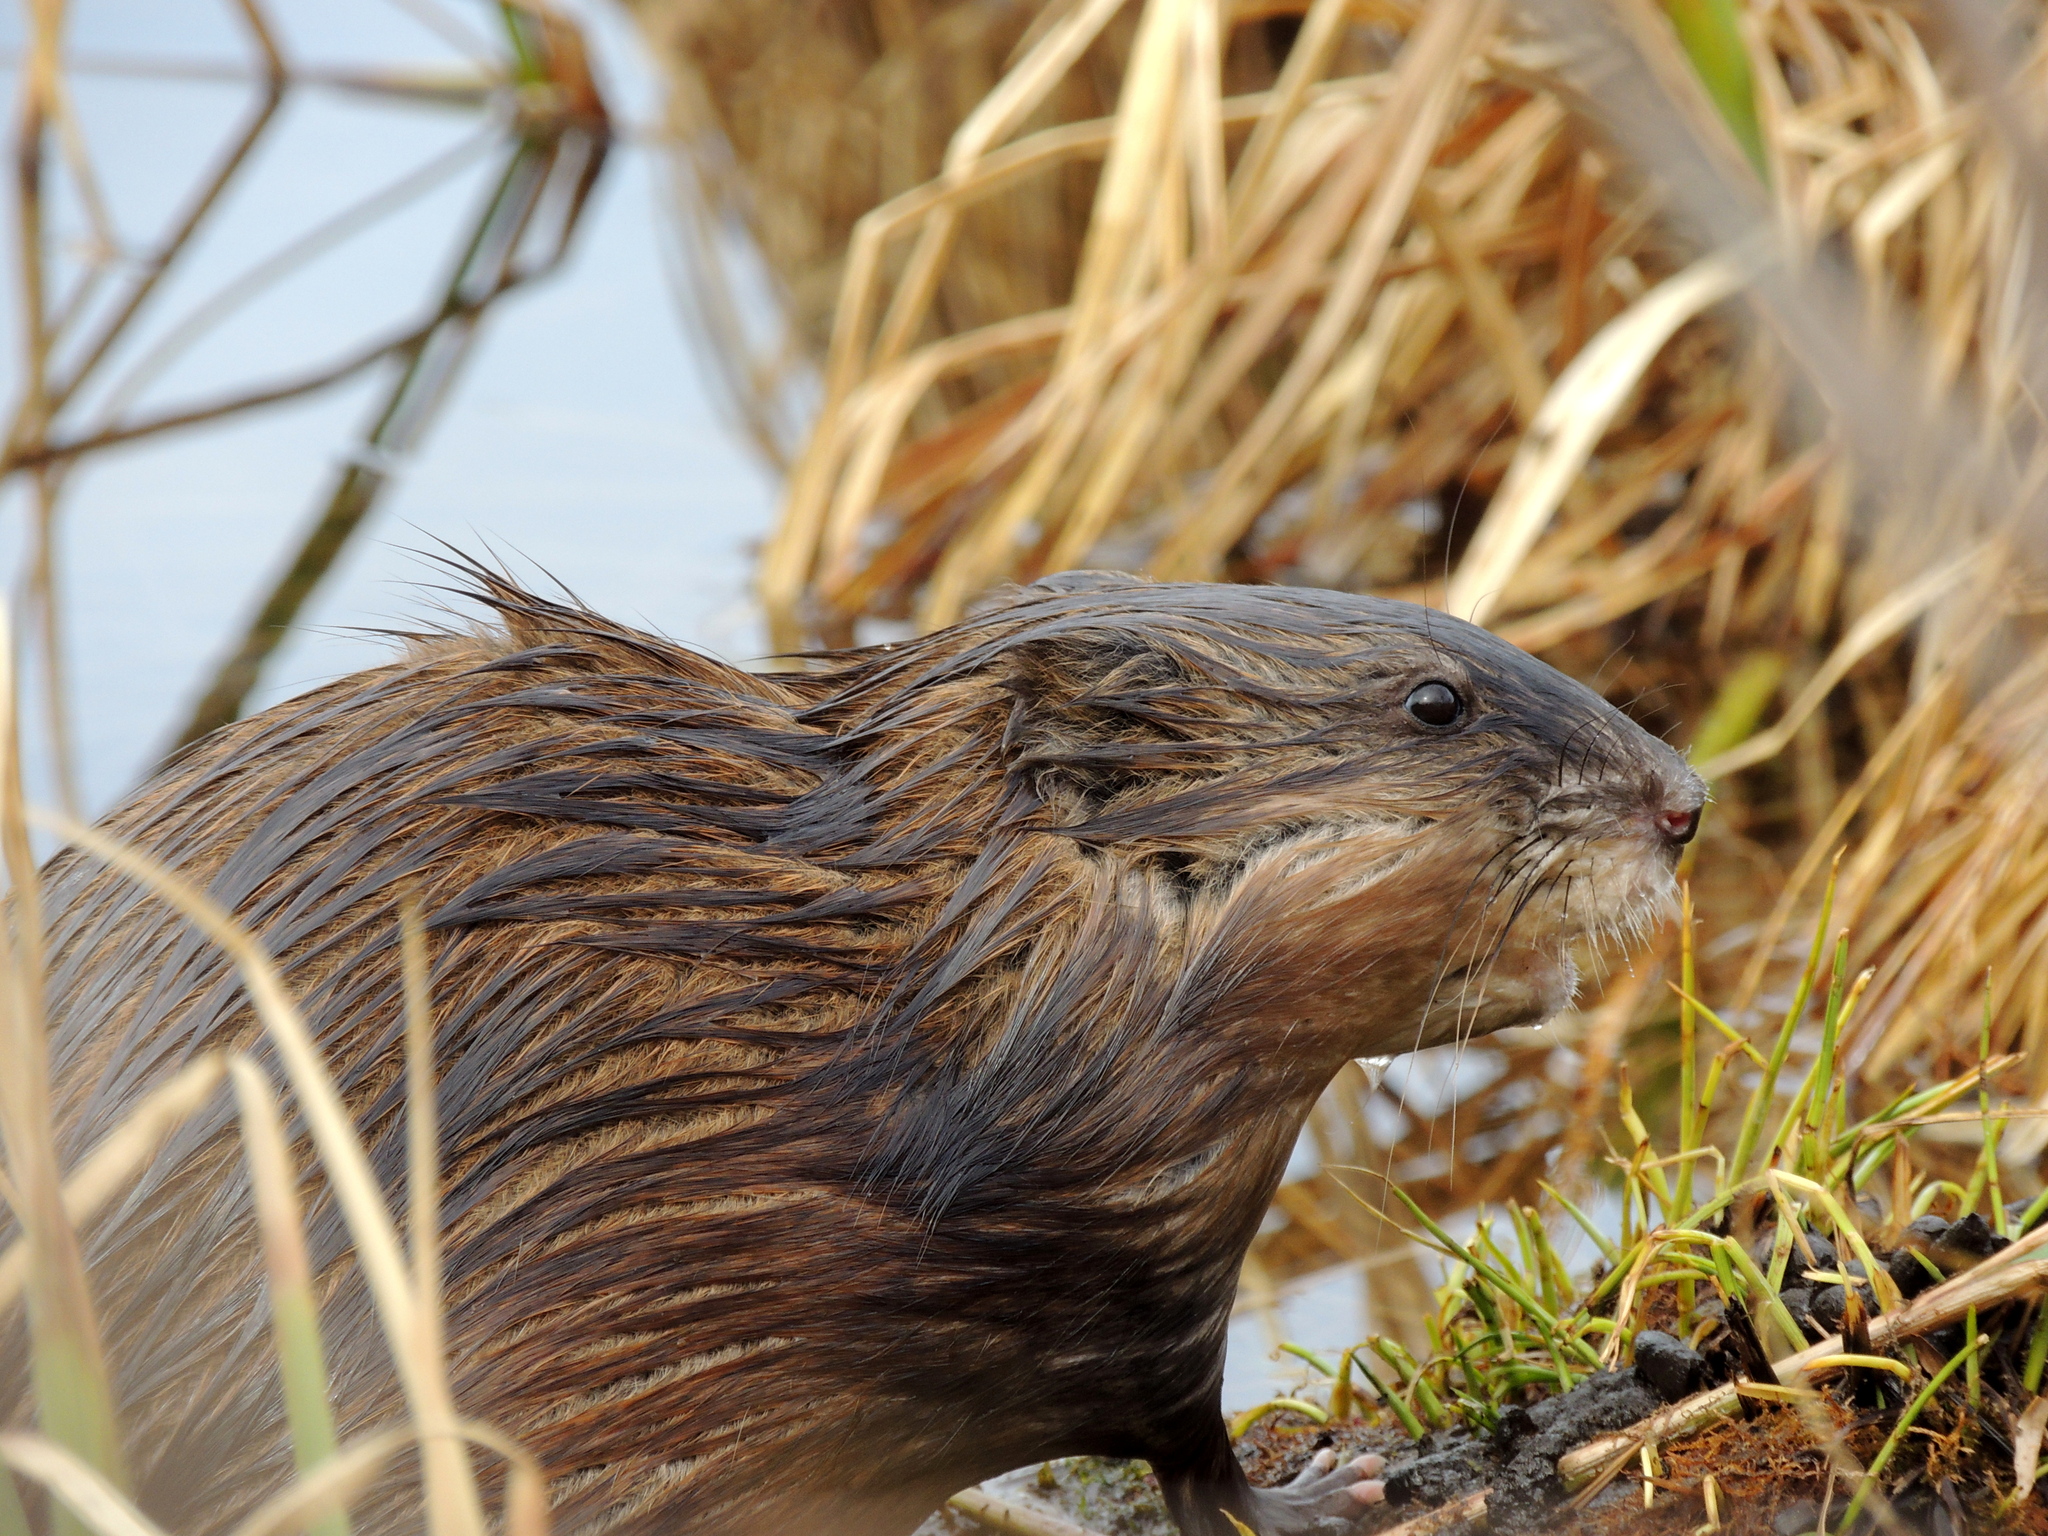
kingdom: Animalia
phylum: Chordata
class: Mammalia
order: Rodentia
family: Cricetidae
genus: Ondatra
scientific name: Ondatra zibethicus
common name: Muskrat
